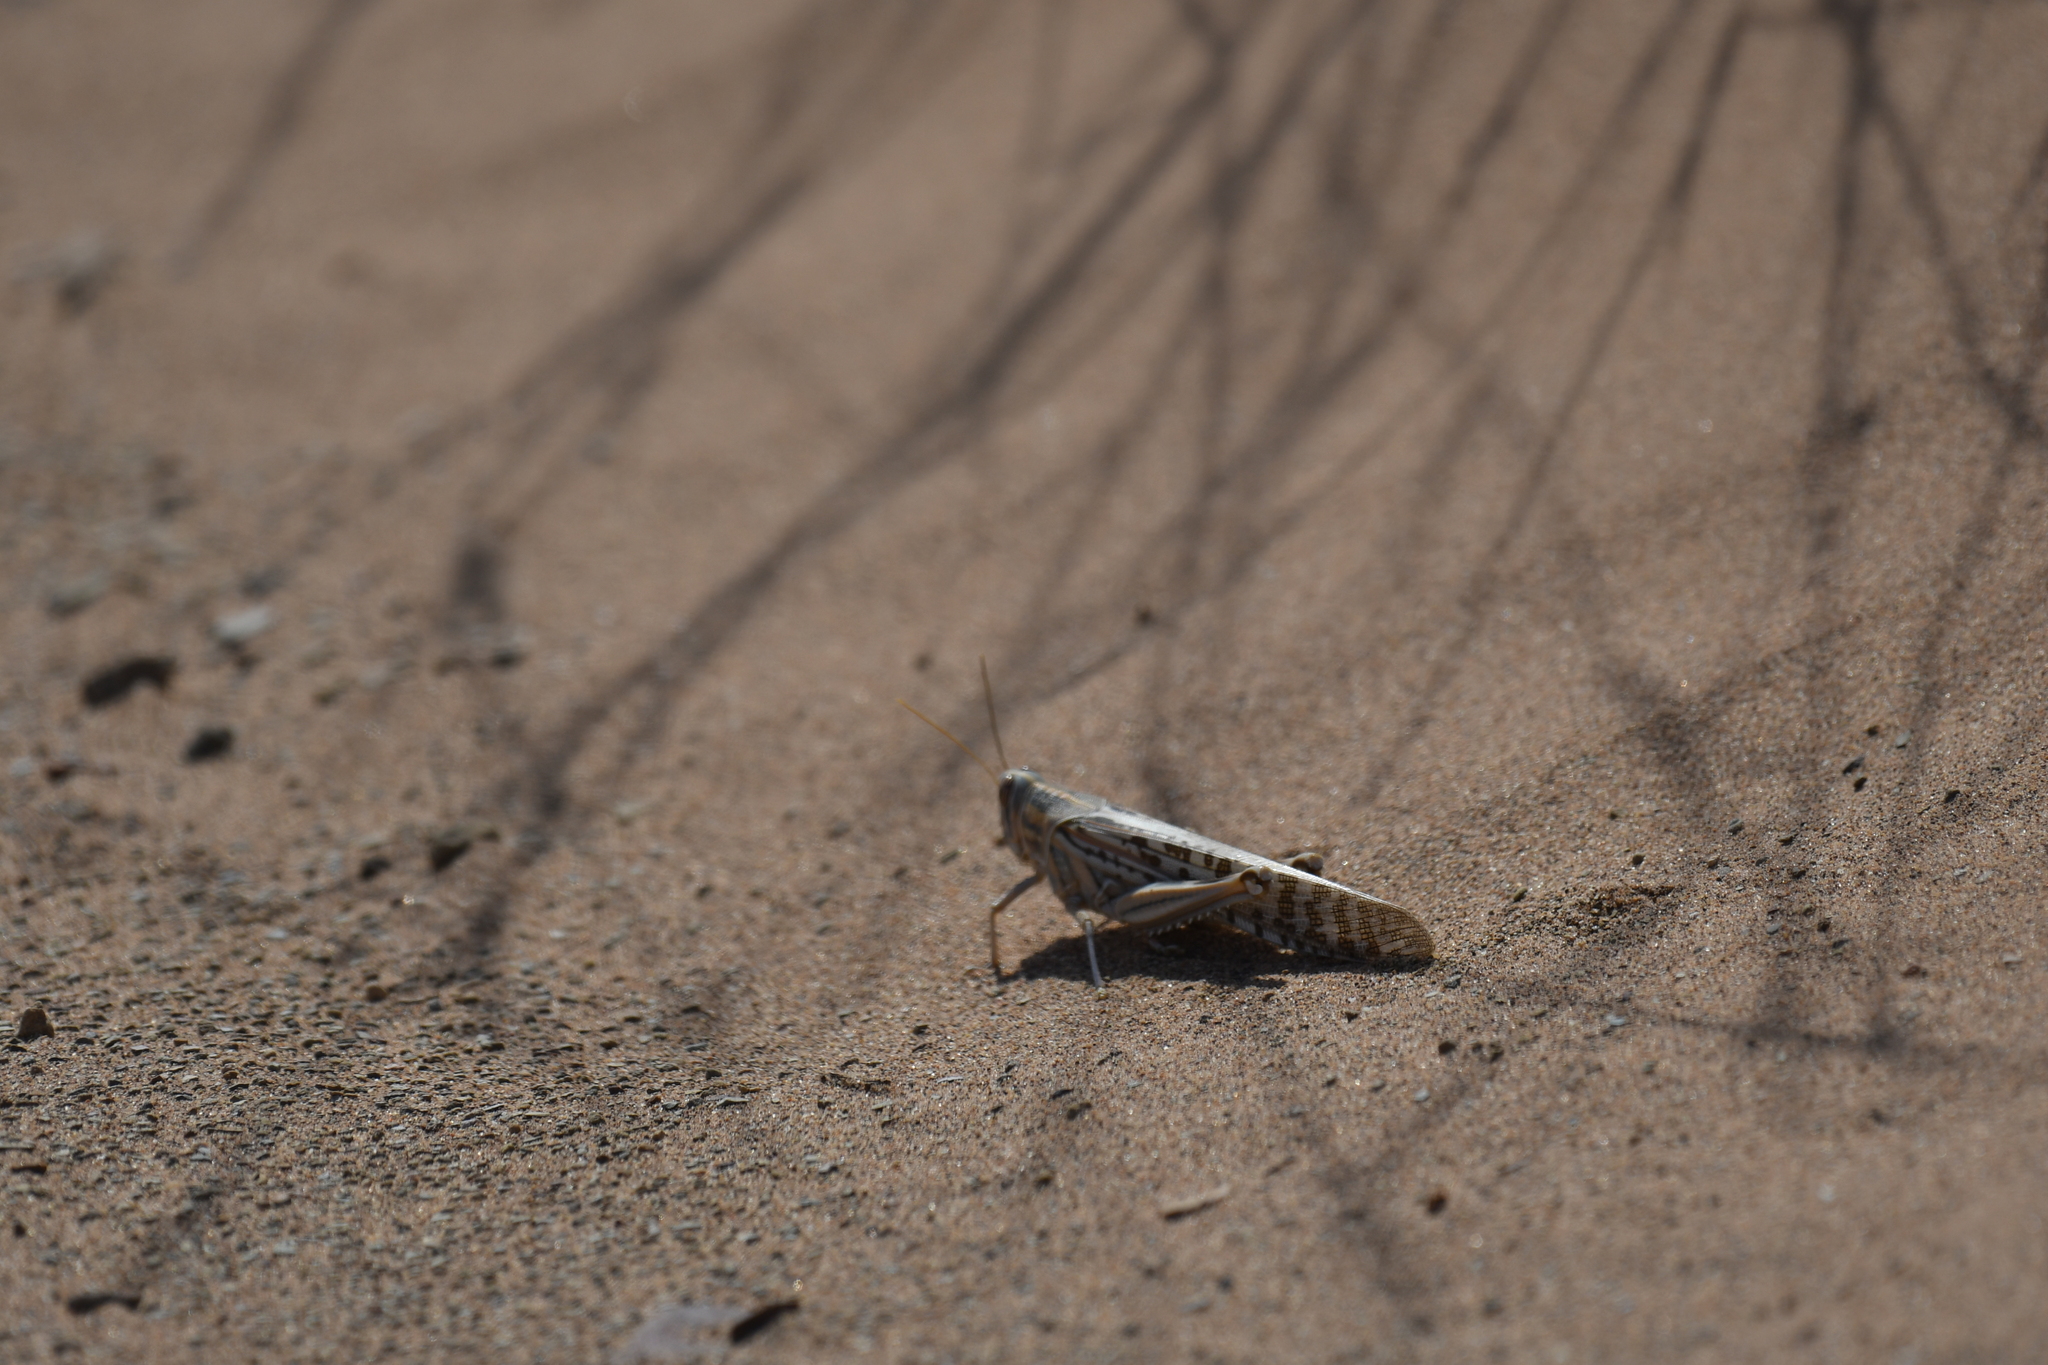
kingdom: Animalia
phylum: Arthropoda
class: Insecta
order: Orthoptera
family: Acrididae
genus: Schistocerca
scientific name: Schistocerca gregaria
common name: Desert locust
